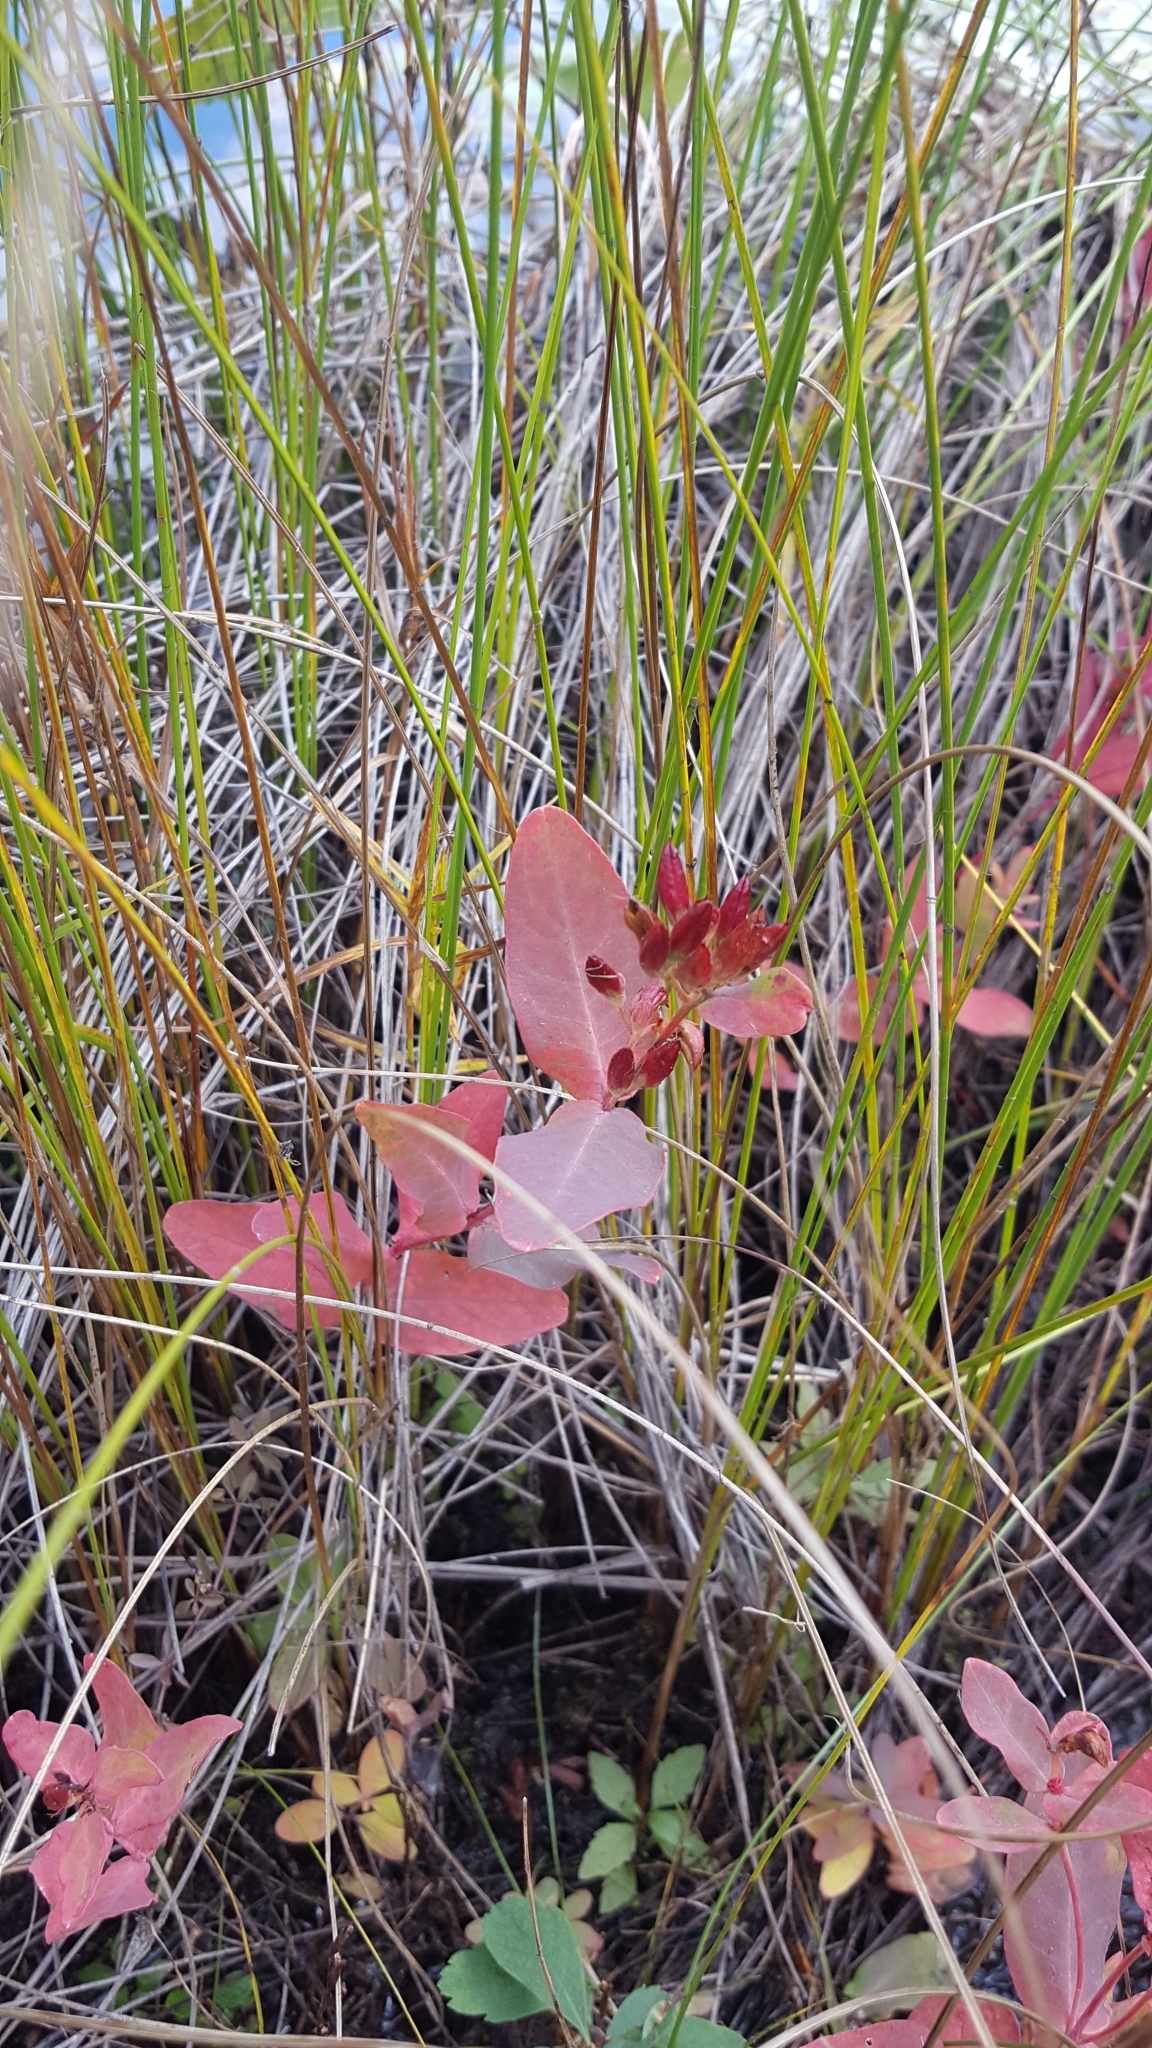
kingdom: Plantae
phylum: Tracheophyta
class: Magnoliopsida
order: Malpighiales
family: Hypericaceae
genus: Triadenum
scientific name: Triadenum fraseri
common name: Fraser's marsh st. johnswort
